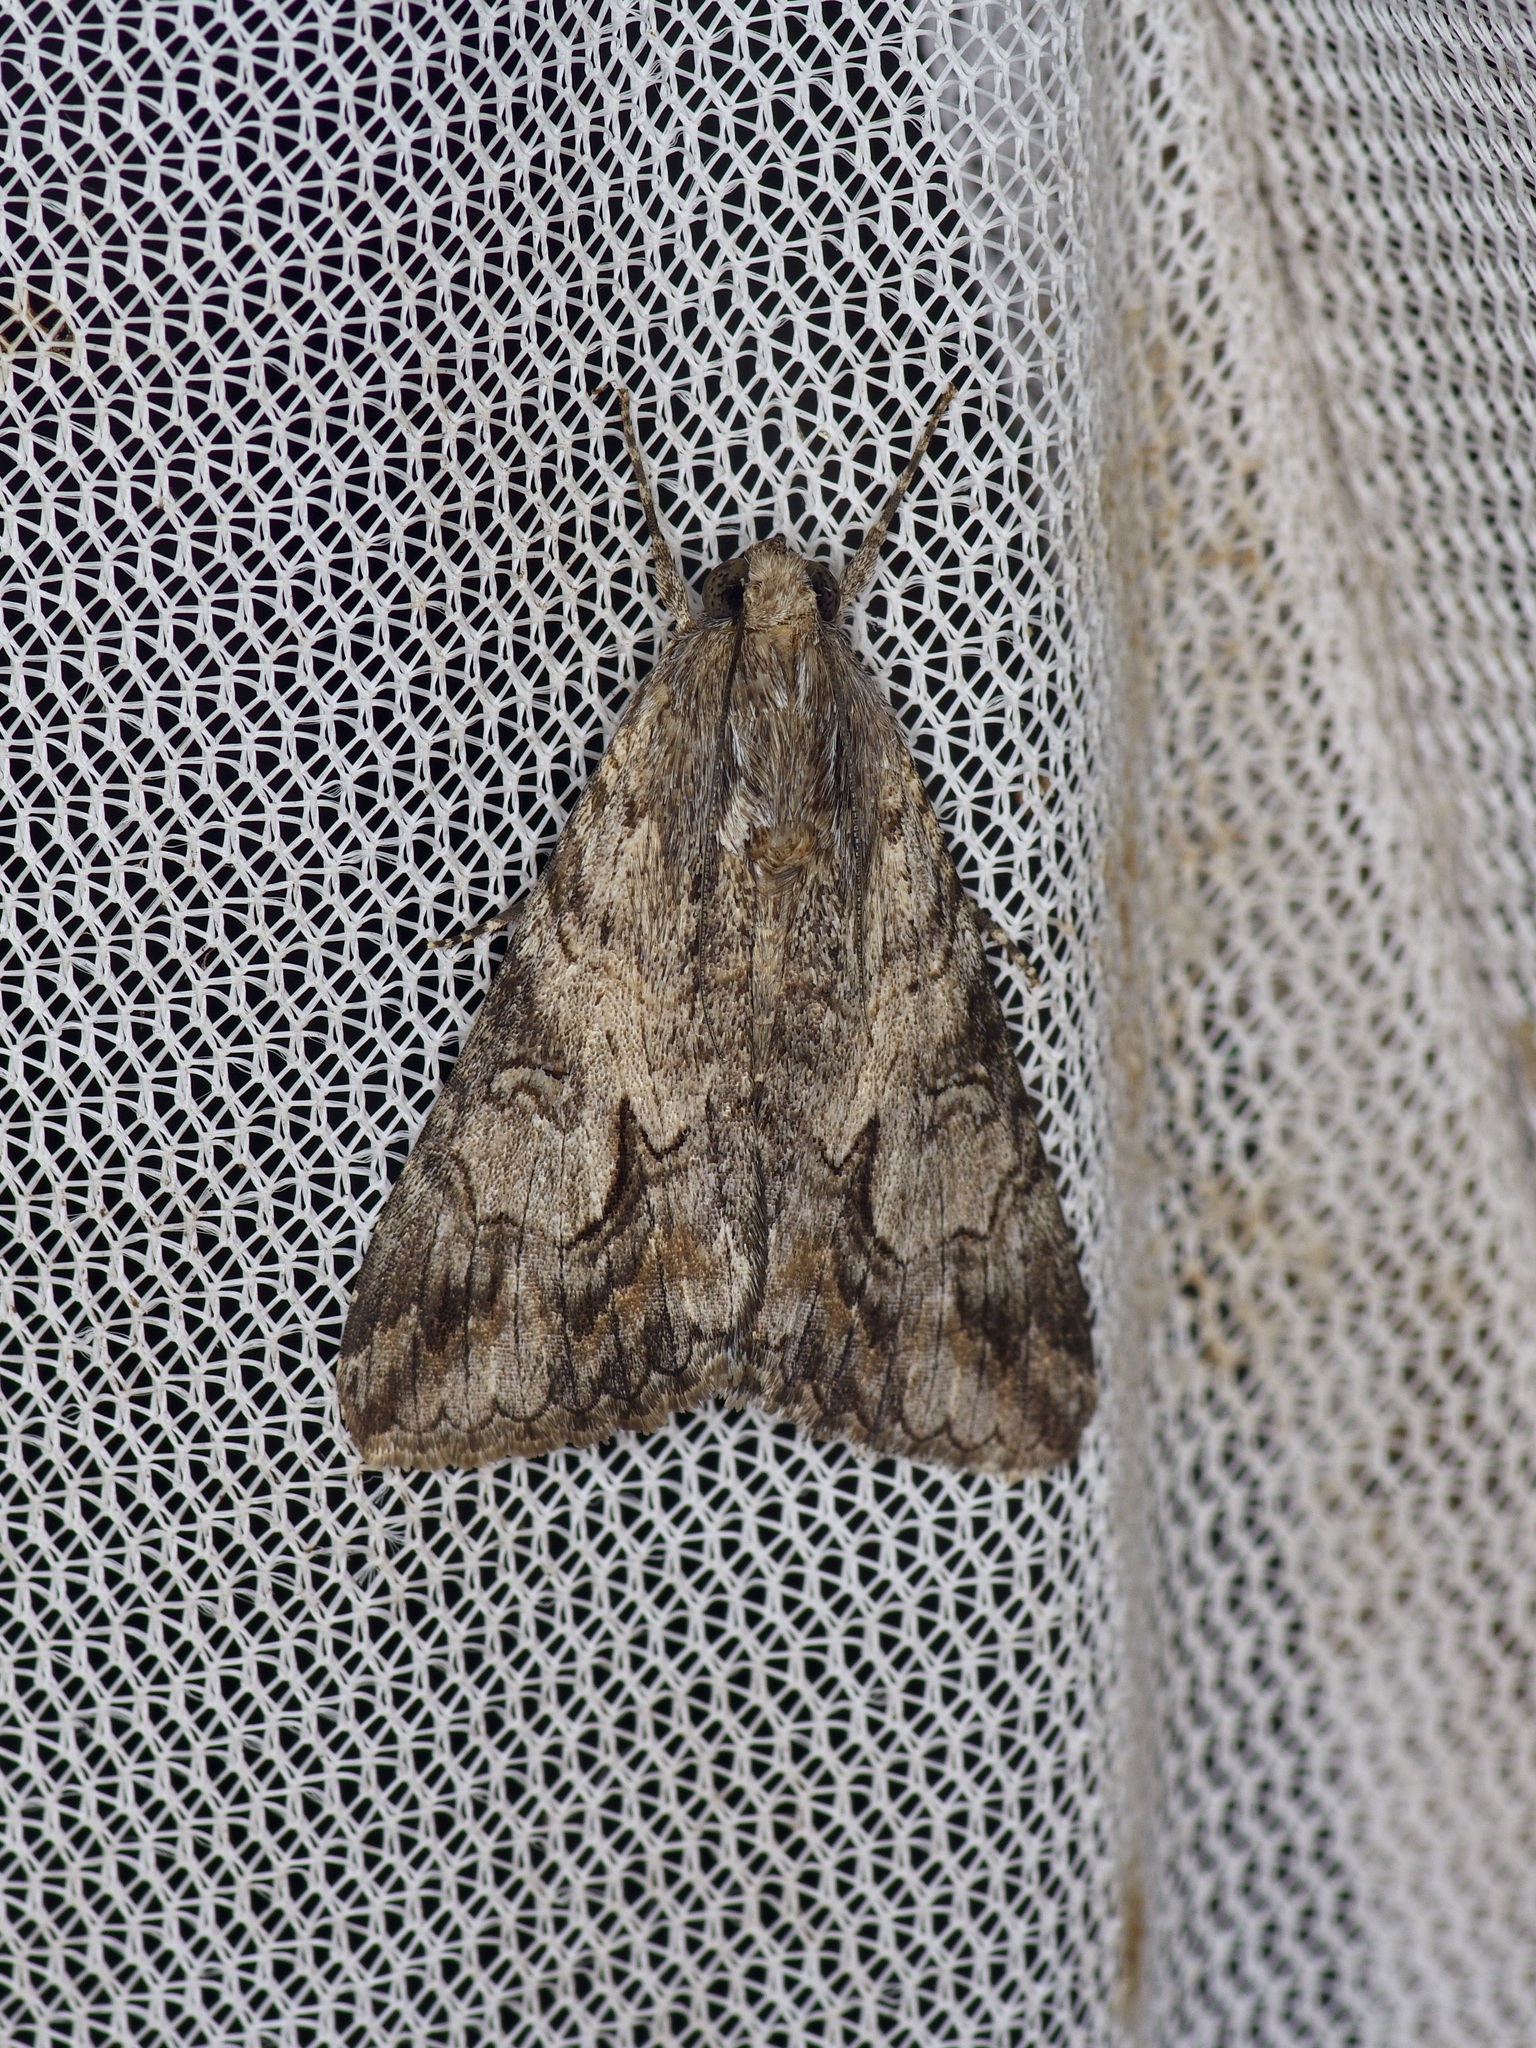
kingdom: Animalia
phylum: Arthropoda
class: Insecta
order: Lepidoptera
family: Erebidae
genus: Melipotis
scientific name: Melipotis jucunda
